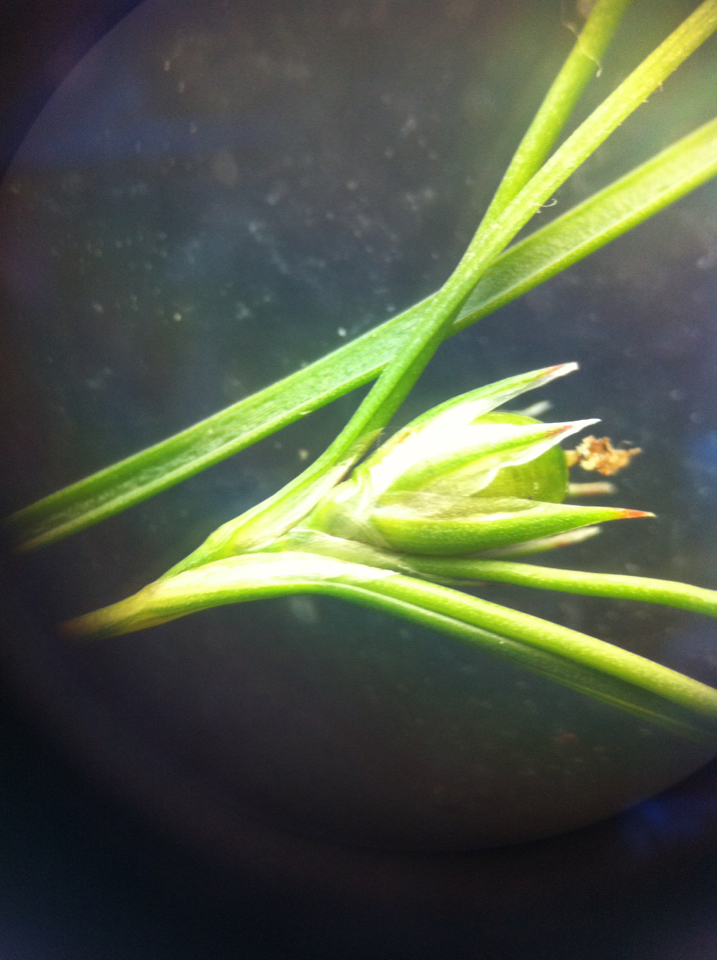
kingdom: Plantae
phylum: Tracheophyta
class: Liliopsida
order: Poales
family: Juncaceae
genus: Juncus
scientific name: Juncus tenuis
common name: Slender rush
